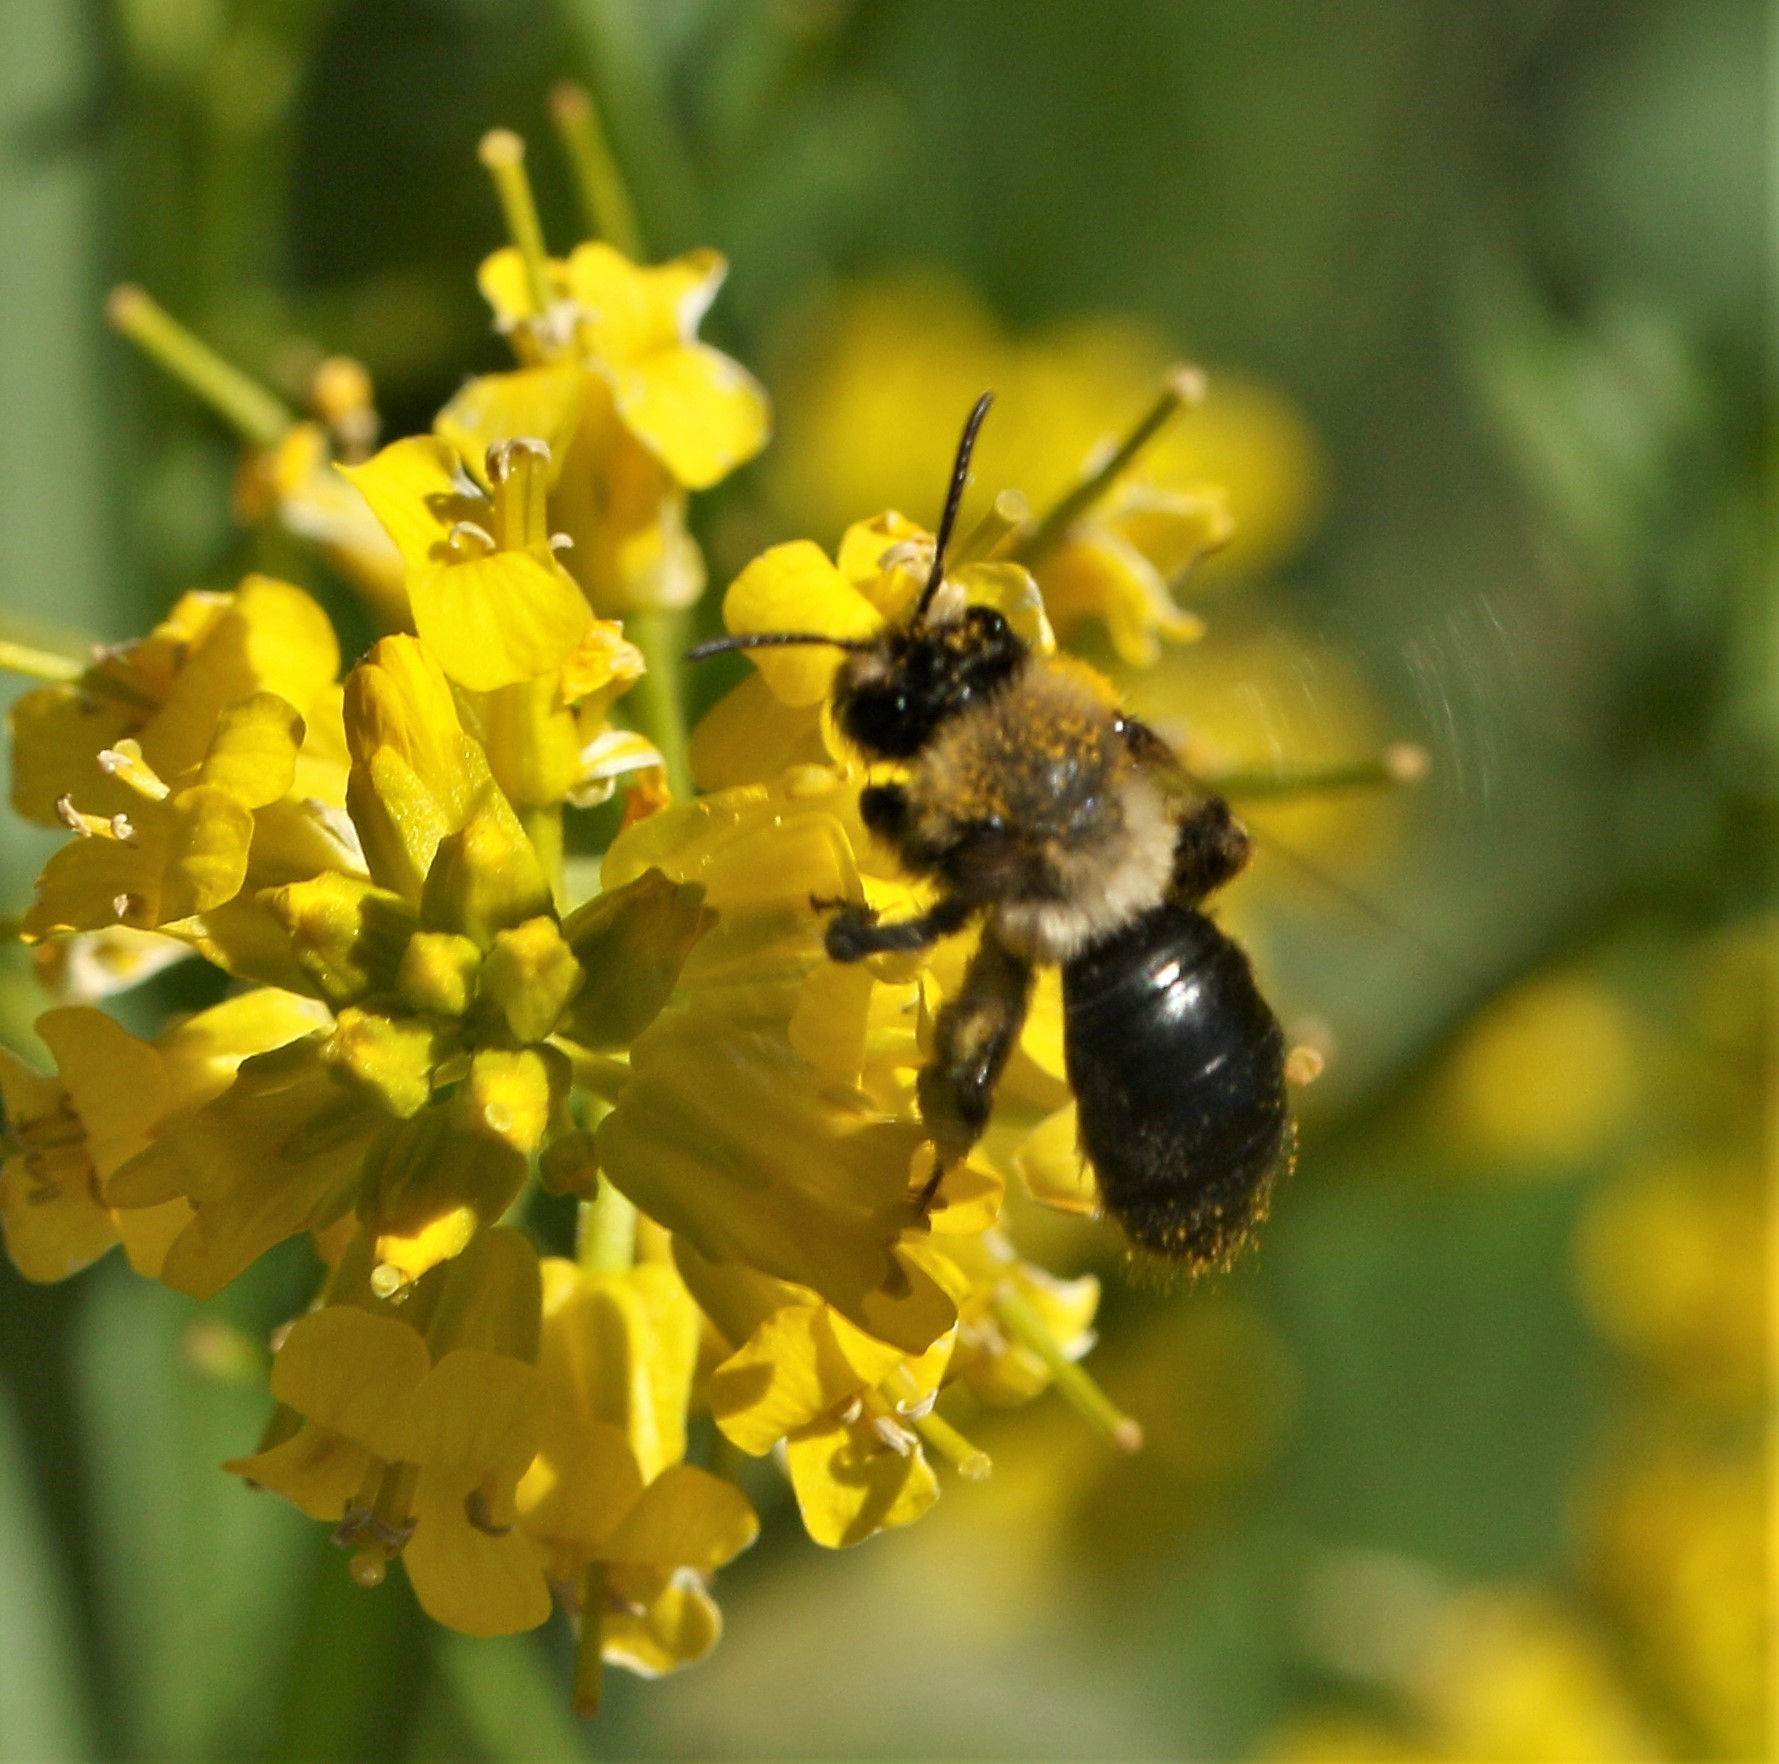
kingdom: Animalia
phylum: Arthropoda
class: Insecta
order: Hymenoptera
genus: Melandrena
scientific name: Melandrena
